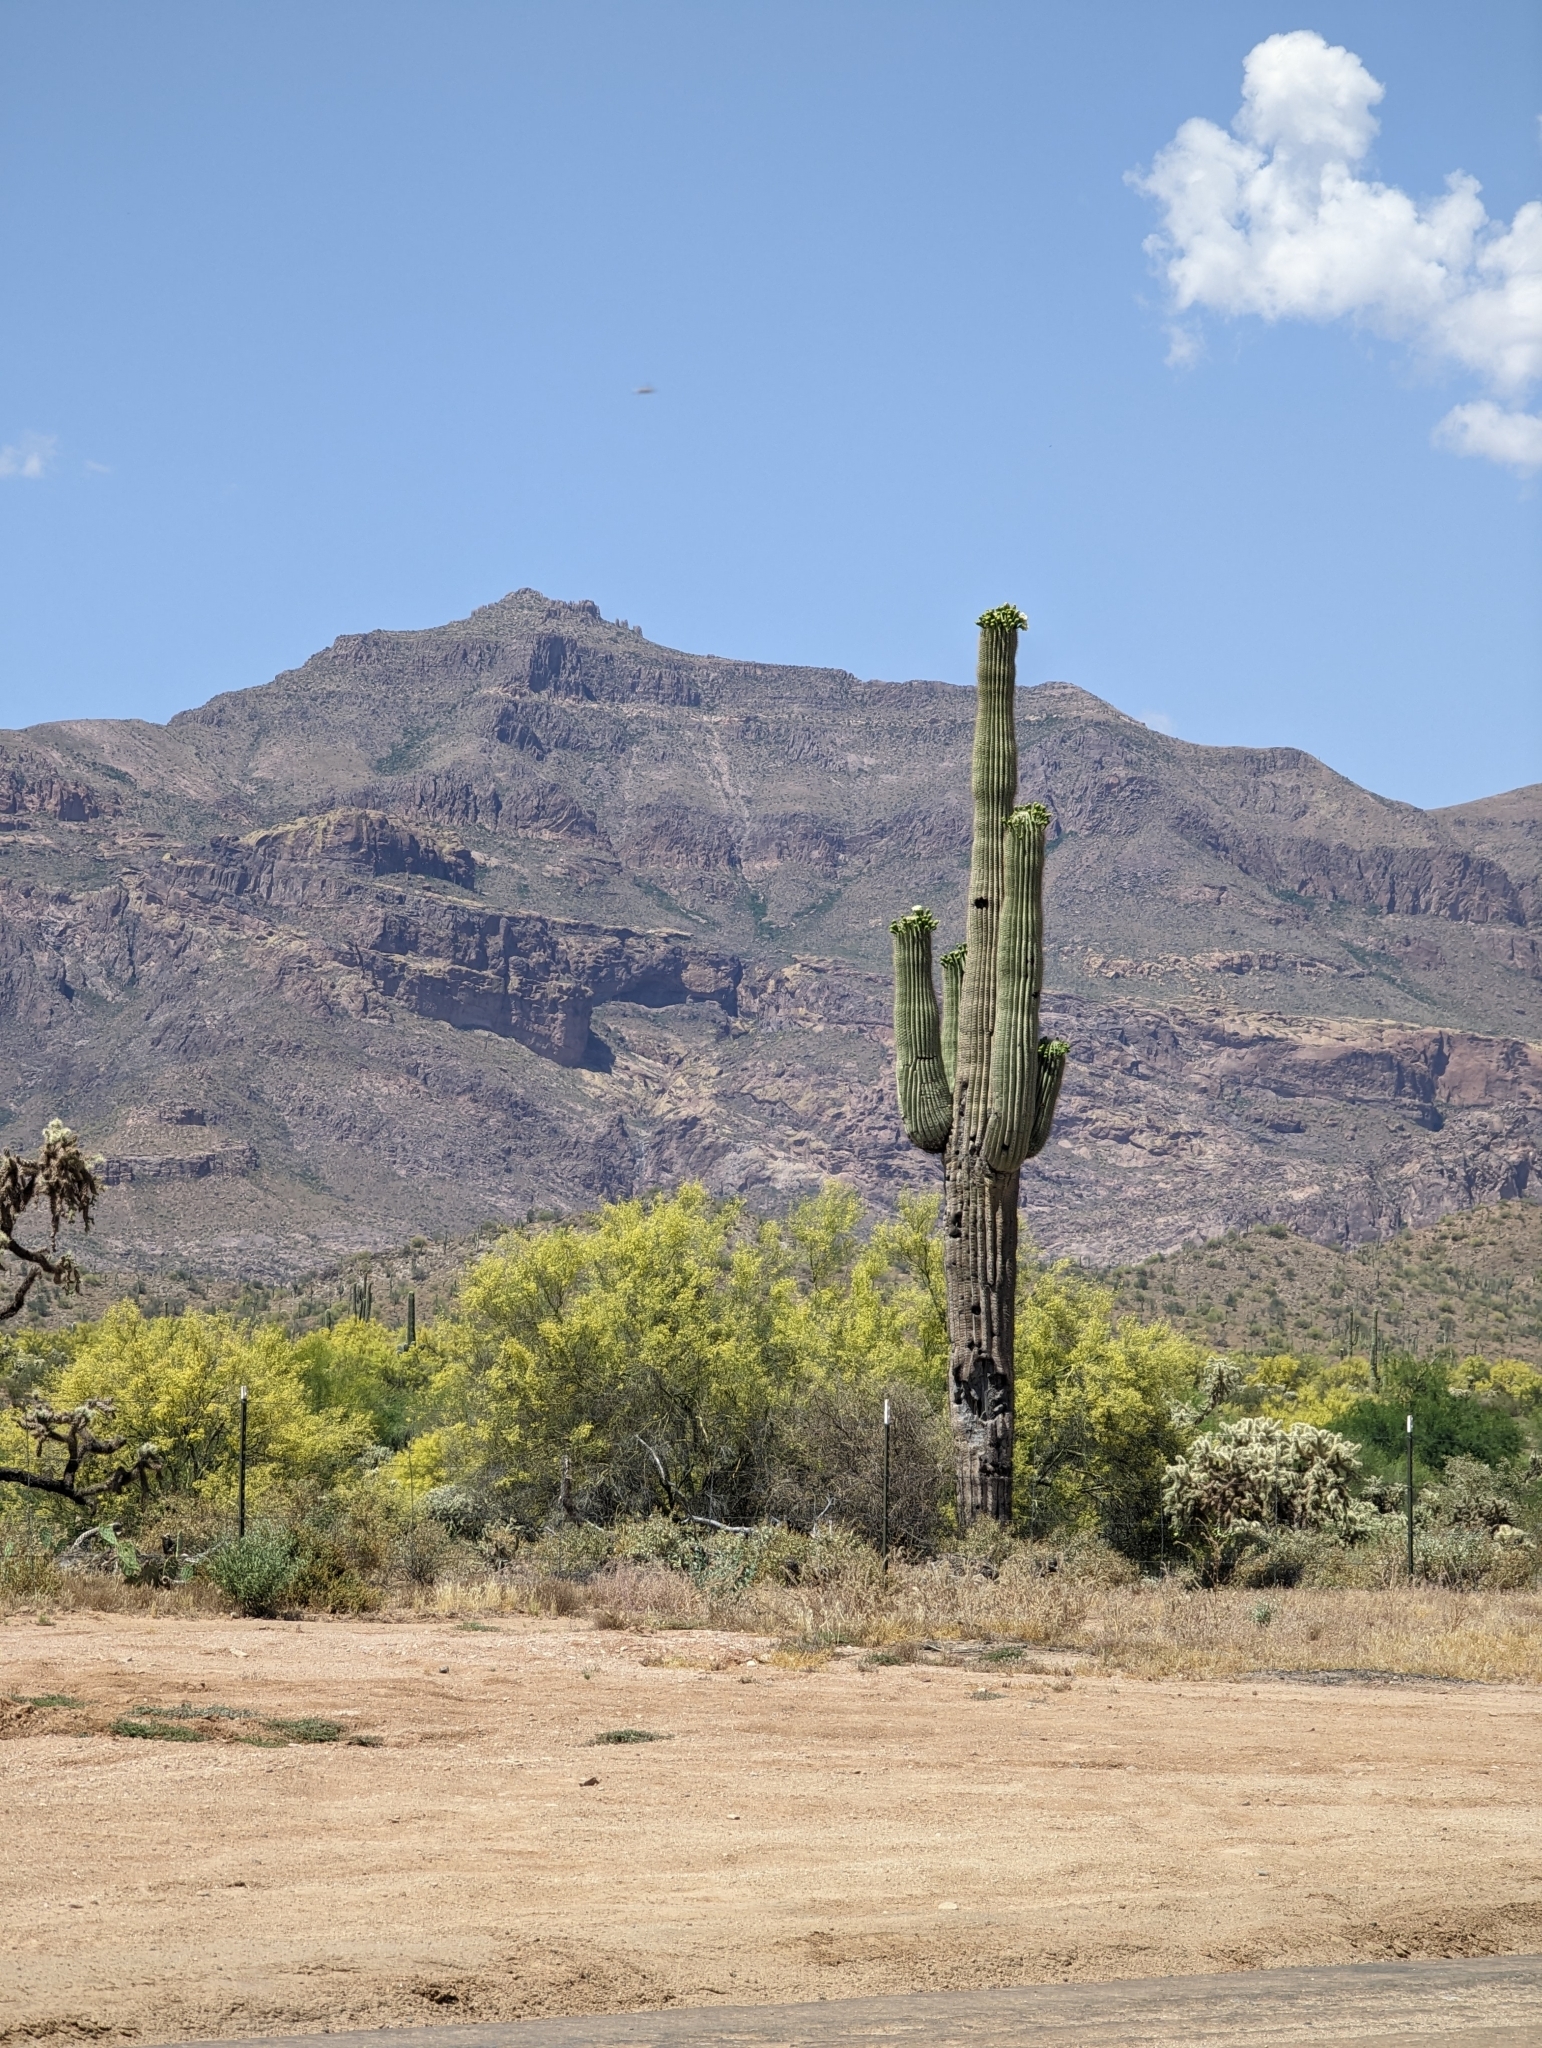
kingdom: Plantae
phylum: Tracheophyta
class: Magnoliopsida
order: Caryophyllales
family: Cactaceae
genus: Carnegiea
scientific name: Carnegiea gigantea
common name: Saguaro
